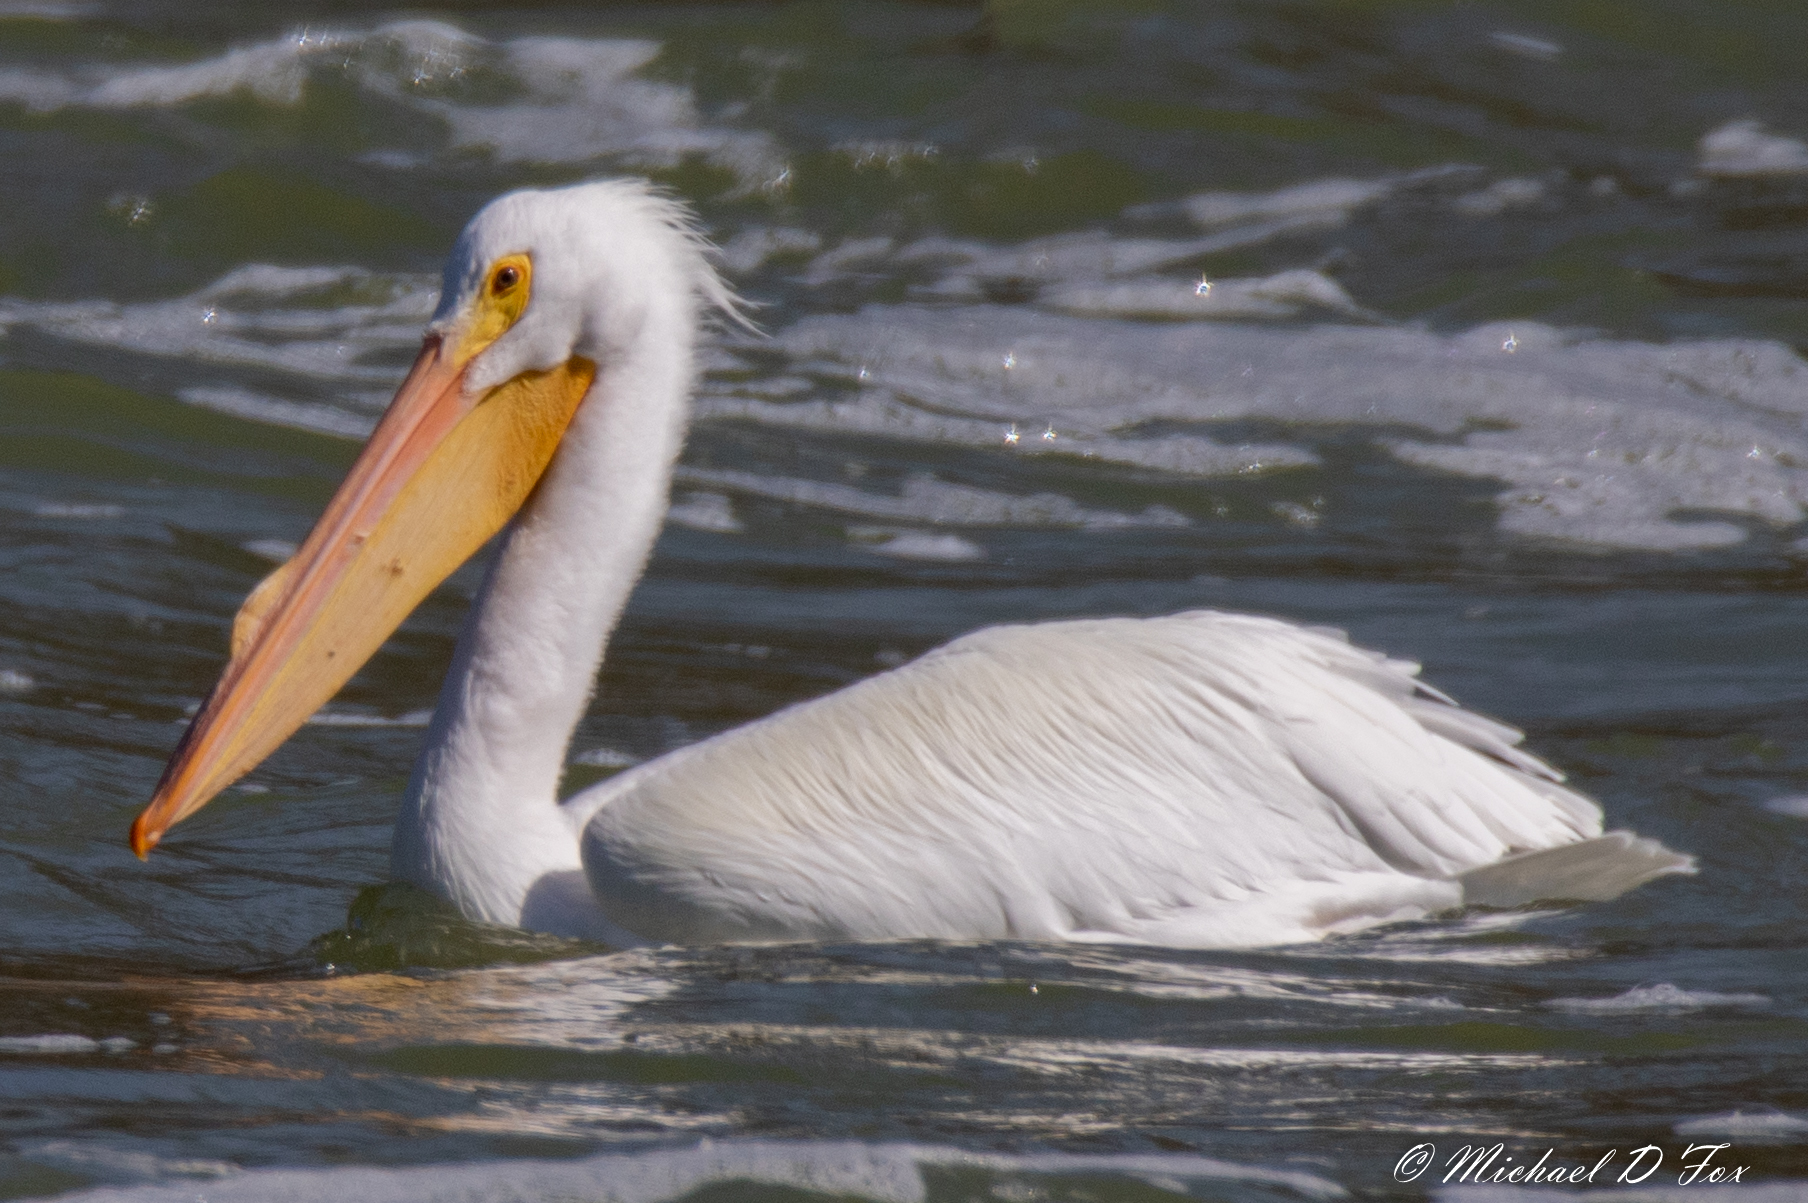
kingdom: Animalia
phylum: Chordata
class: Aves
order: Pelecaniformes
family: Pelecanidae
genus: Pelecanus
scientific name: Pelecanus erythrorhynchos
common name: American white pelican
